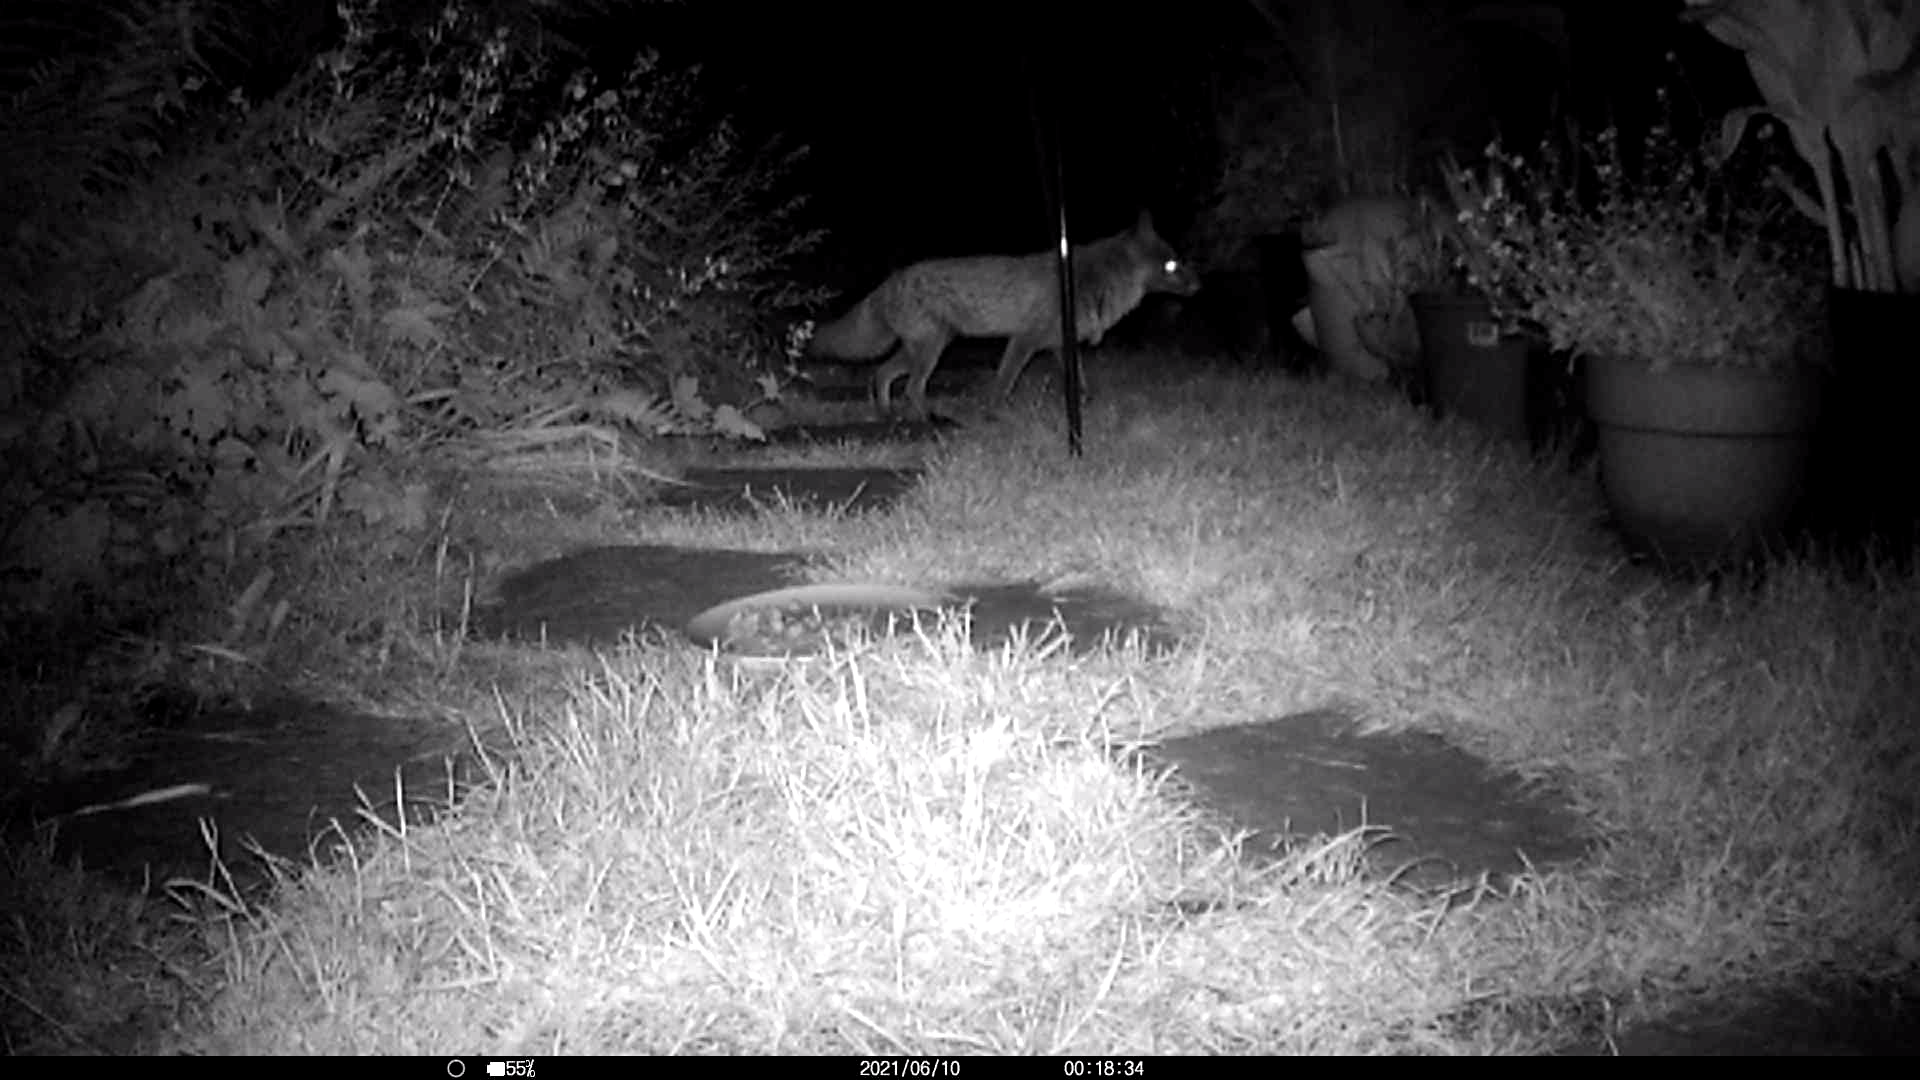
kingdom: Animalia
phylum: Chordata
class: Mammalia
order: Carnivora
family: Canidae
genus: Vulpes
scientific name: Vulpes vulpes
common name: Red fox
